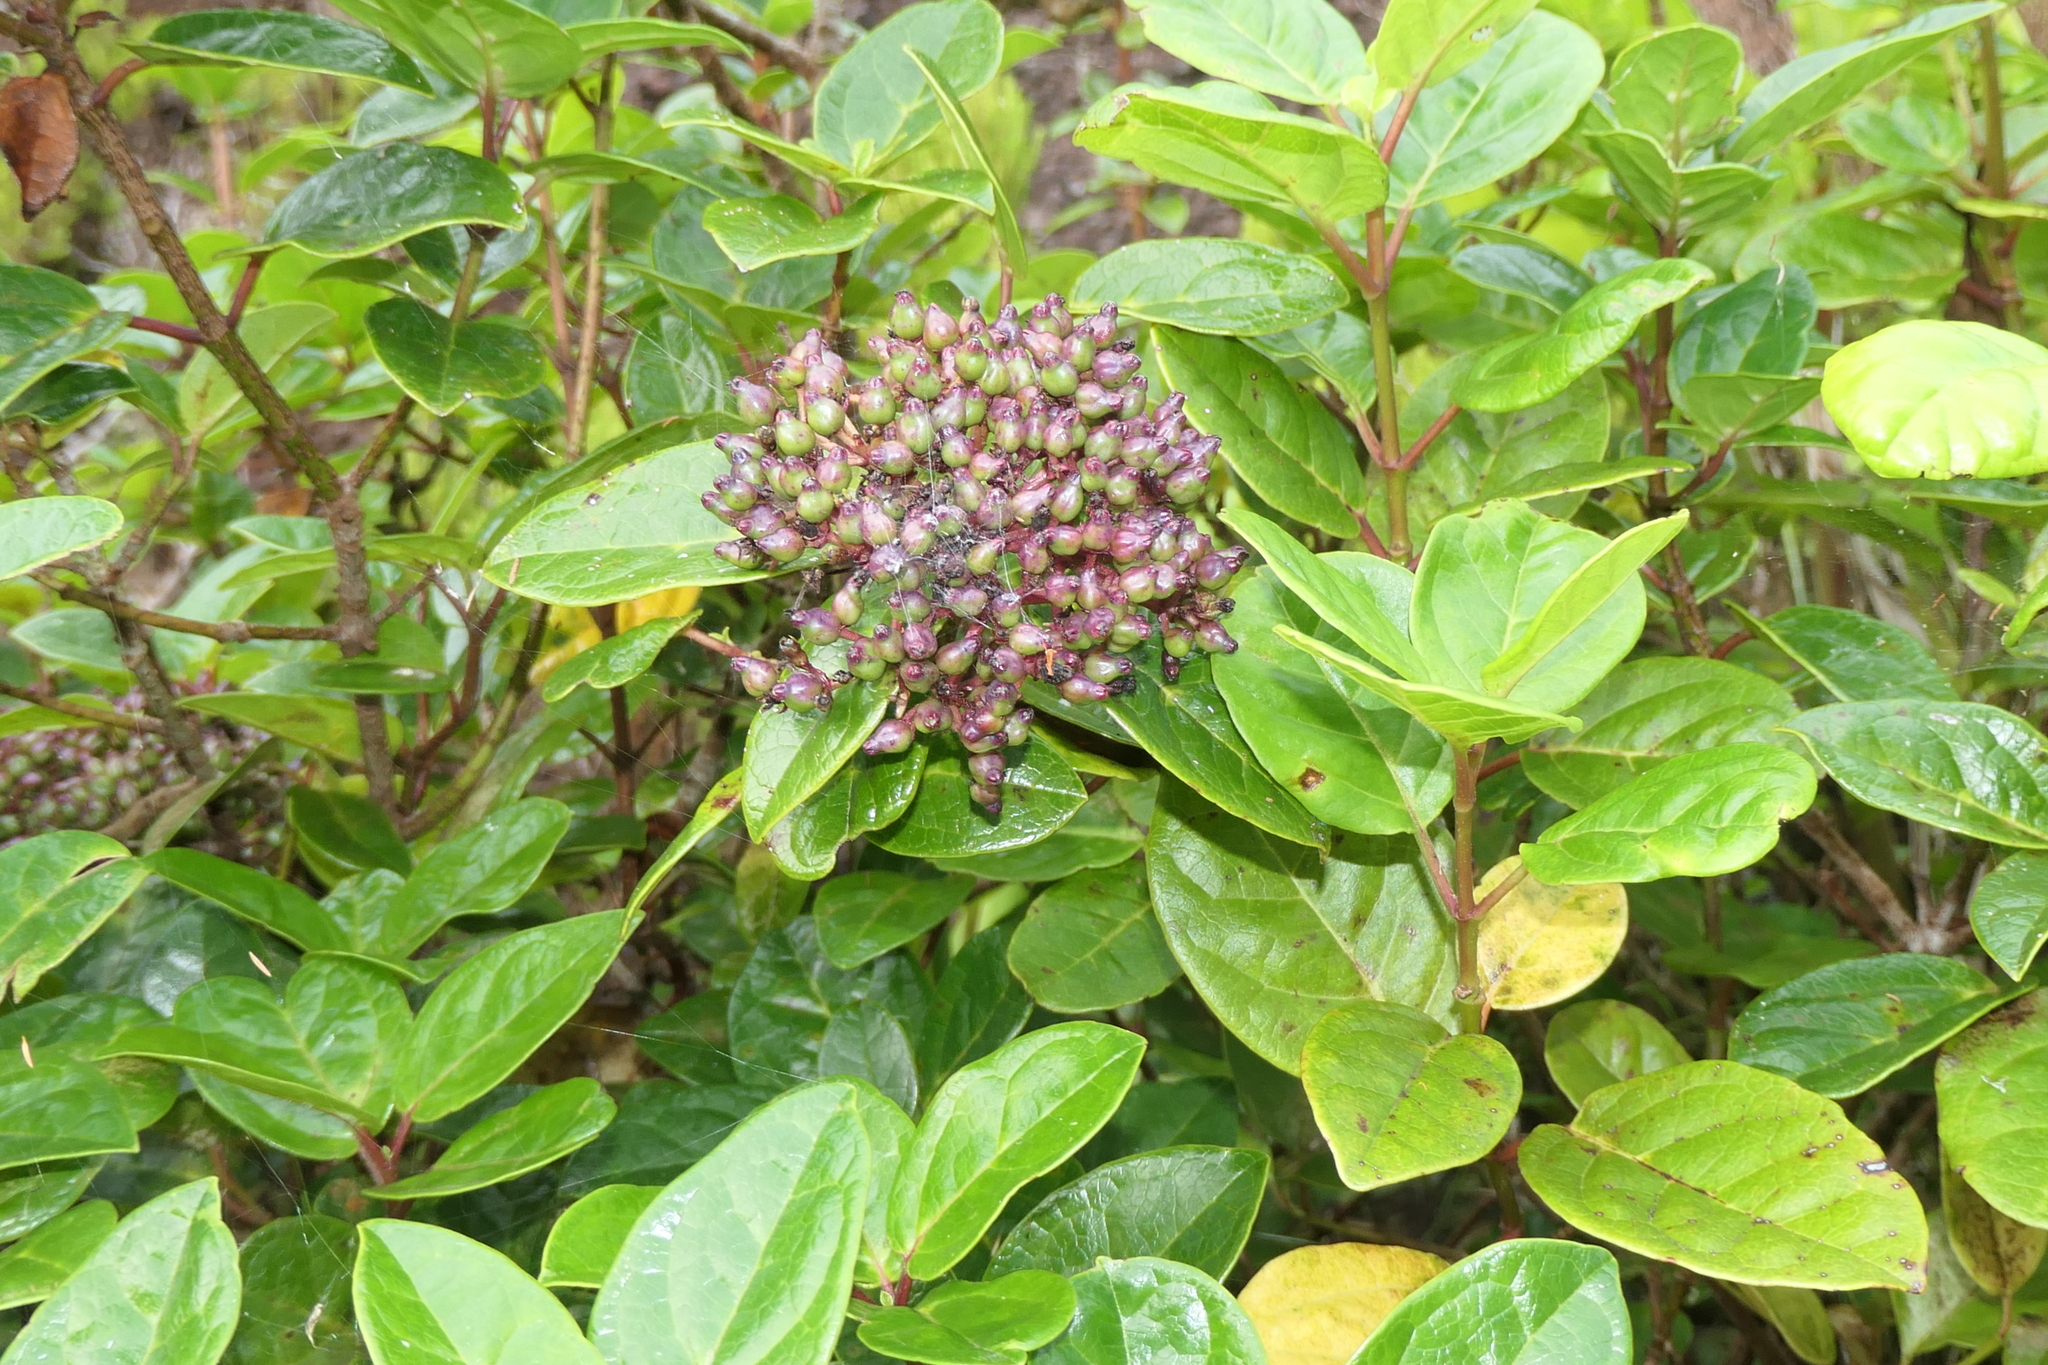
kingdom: Plantae
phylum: Tracheophyta
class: Magnoliopsida
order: Dipsacales
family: Viburnaceae
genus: Viburnum
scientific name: Viburnum treleasei
